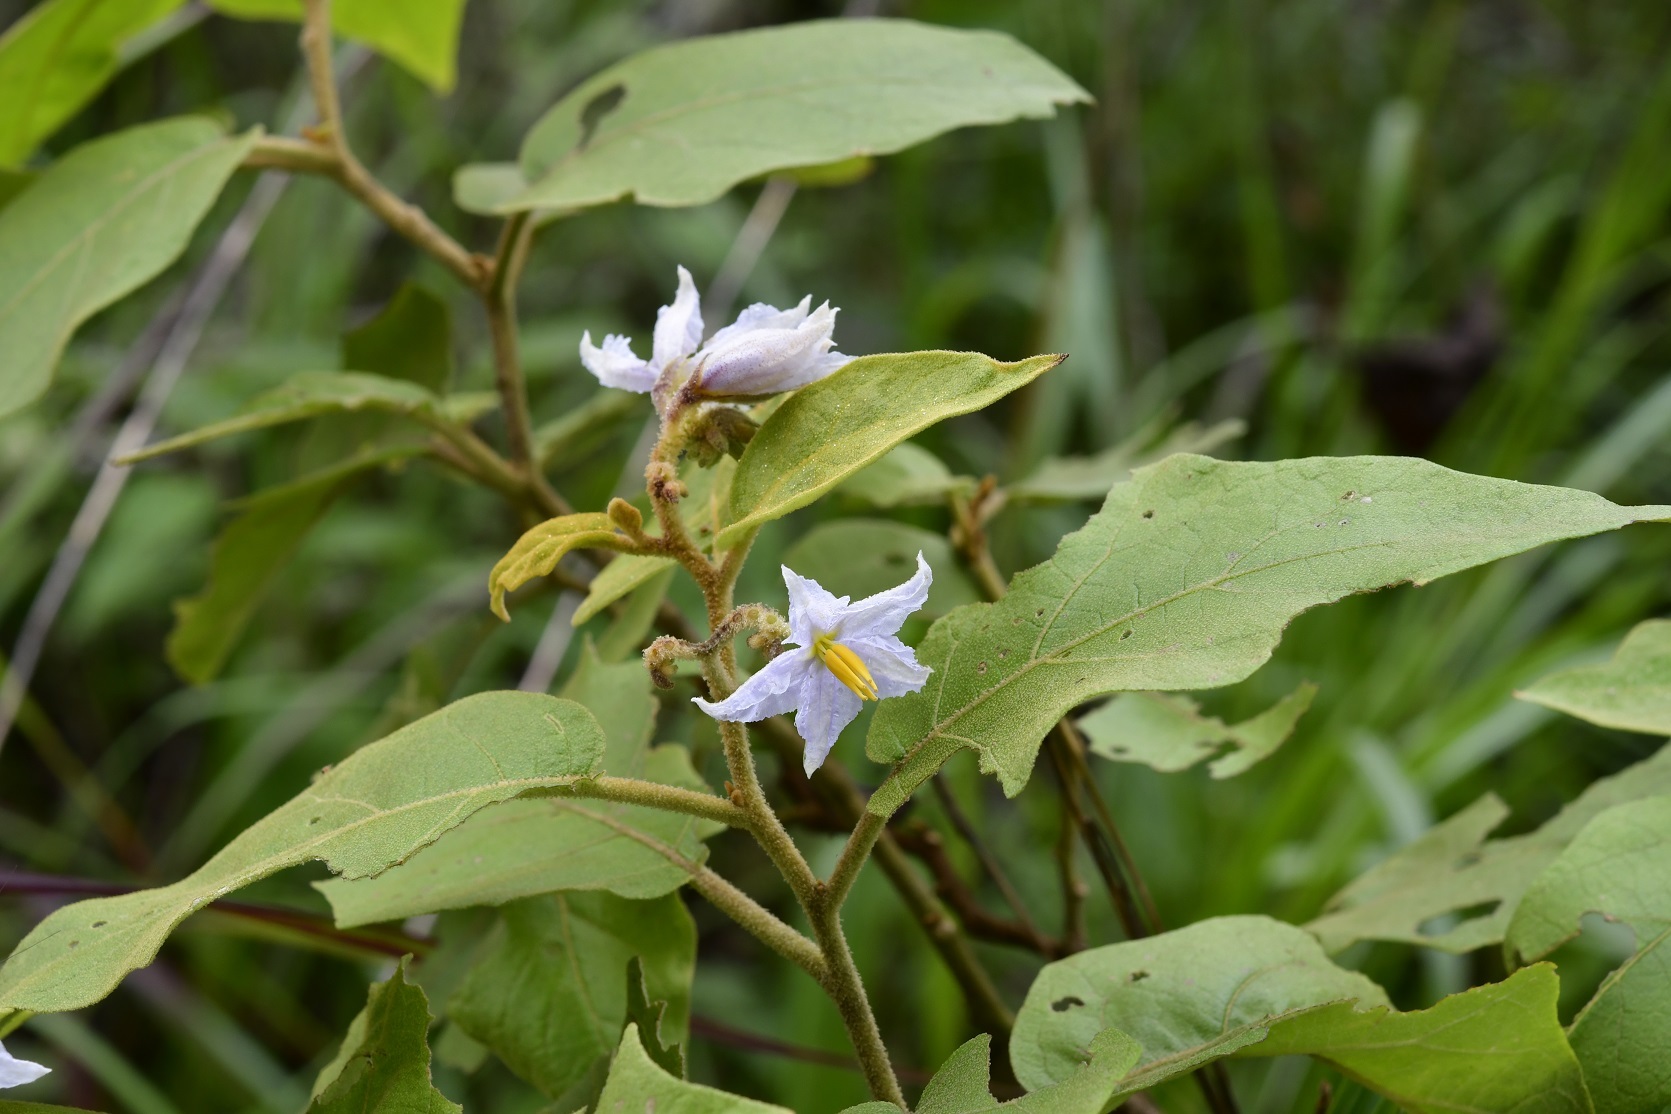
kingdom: Plantae
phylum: Tracheophyta
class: Magnoliopsida
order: Solanales
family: Solanaceae
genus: Solanum
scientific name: Solanum lanceolatum
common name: Orangeberry nightshade
